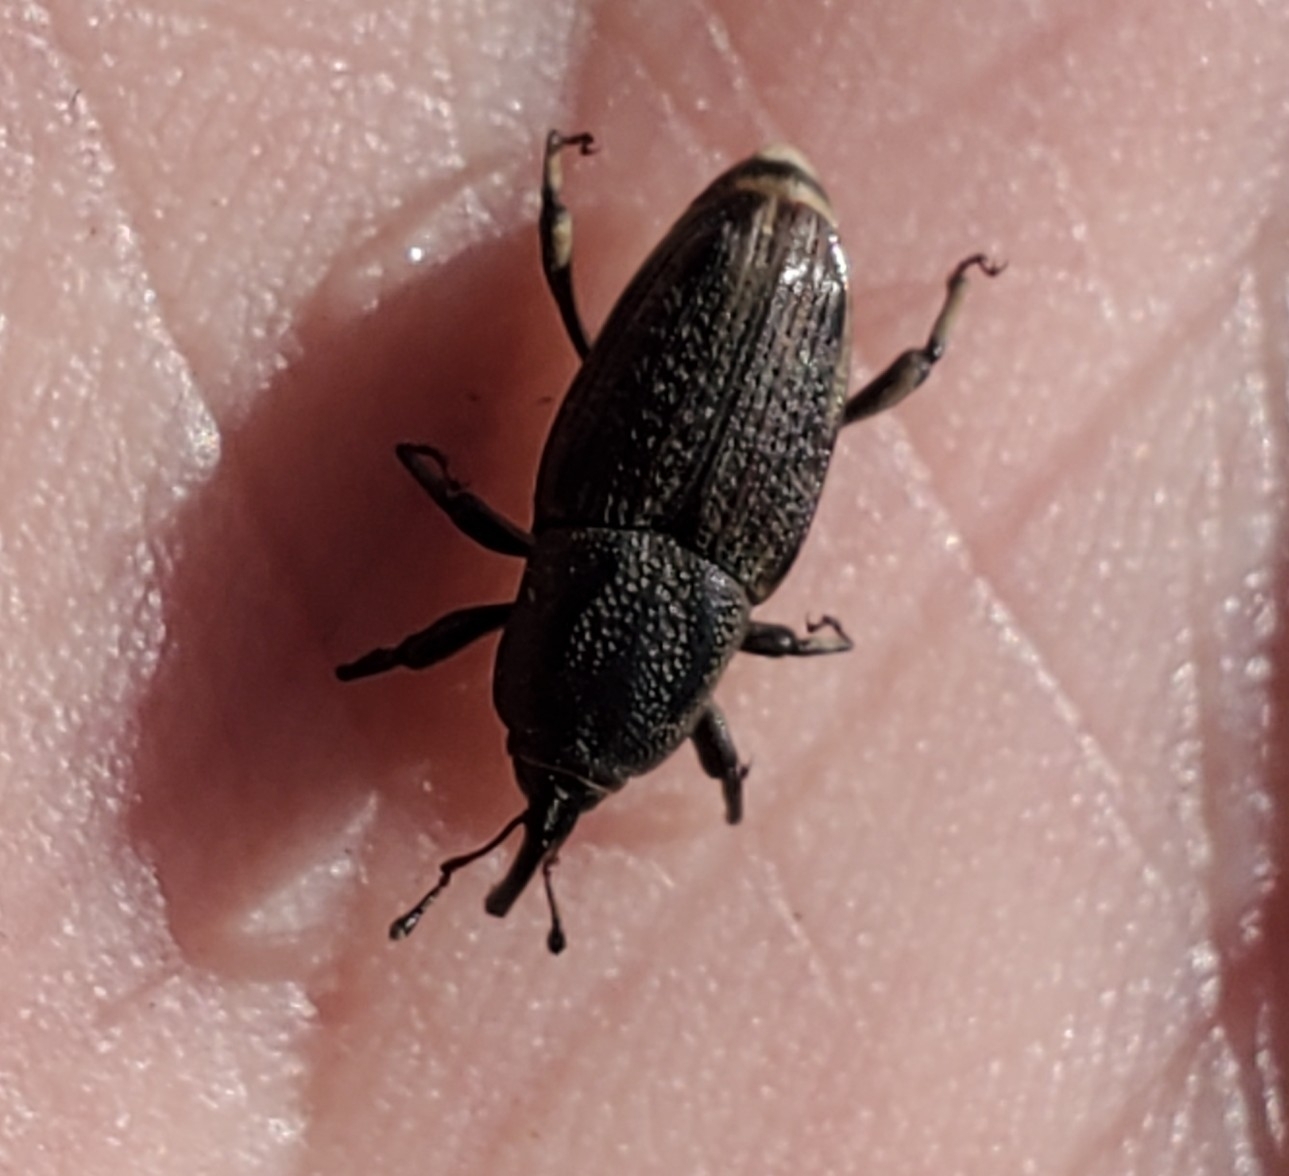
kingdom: Animalia
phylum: Arthropoda
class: Insecta
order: Coleoptera
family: Dryophthoridae
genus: Sphenophorus
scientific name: Sphenophorus venatus
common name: Hunting billbug
